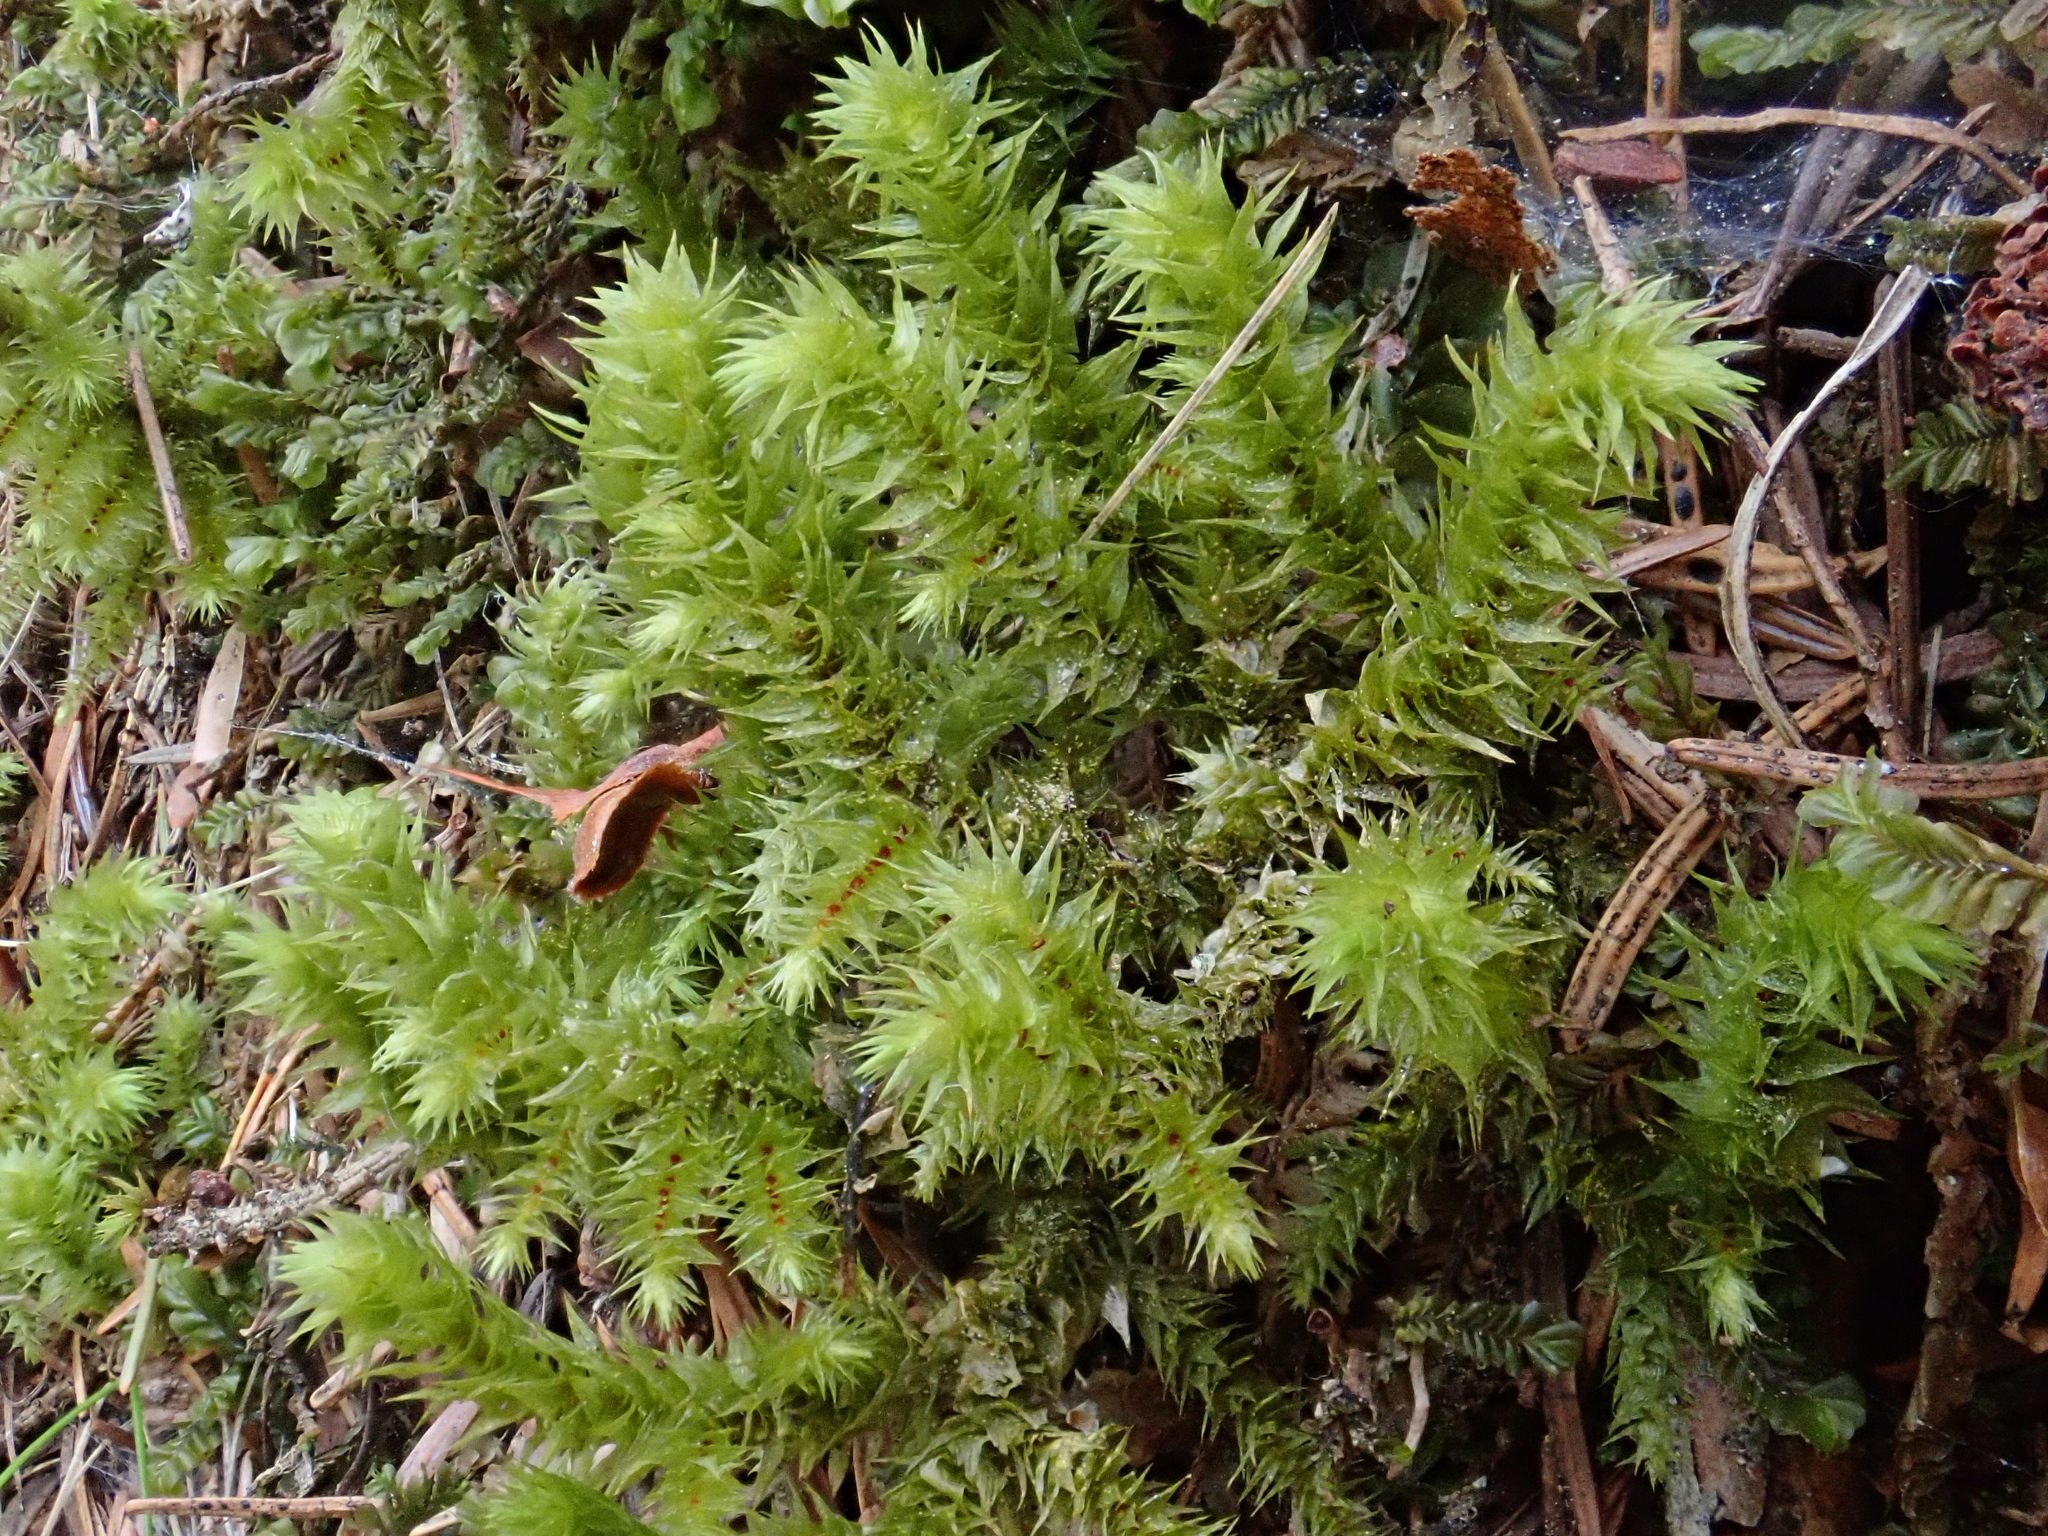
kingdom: Plantae
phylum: Bryophyta
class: Bryopsida
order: Hypnales
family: Hylocomiaceae
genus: Hylocomiadelphus
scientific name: Hylocomiadelphus triquetrus
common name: Rough goose neck moss
